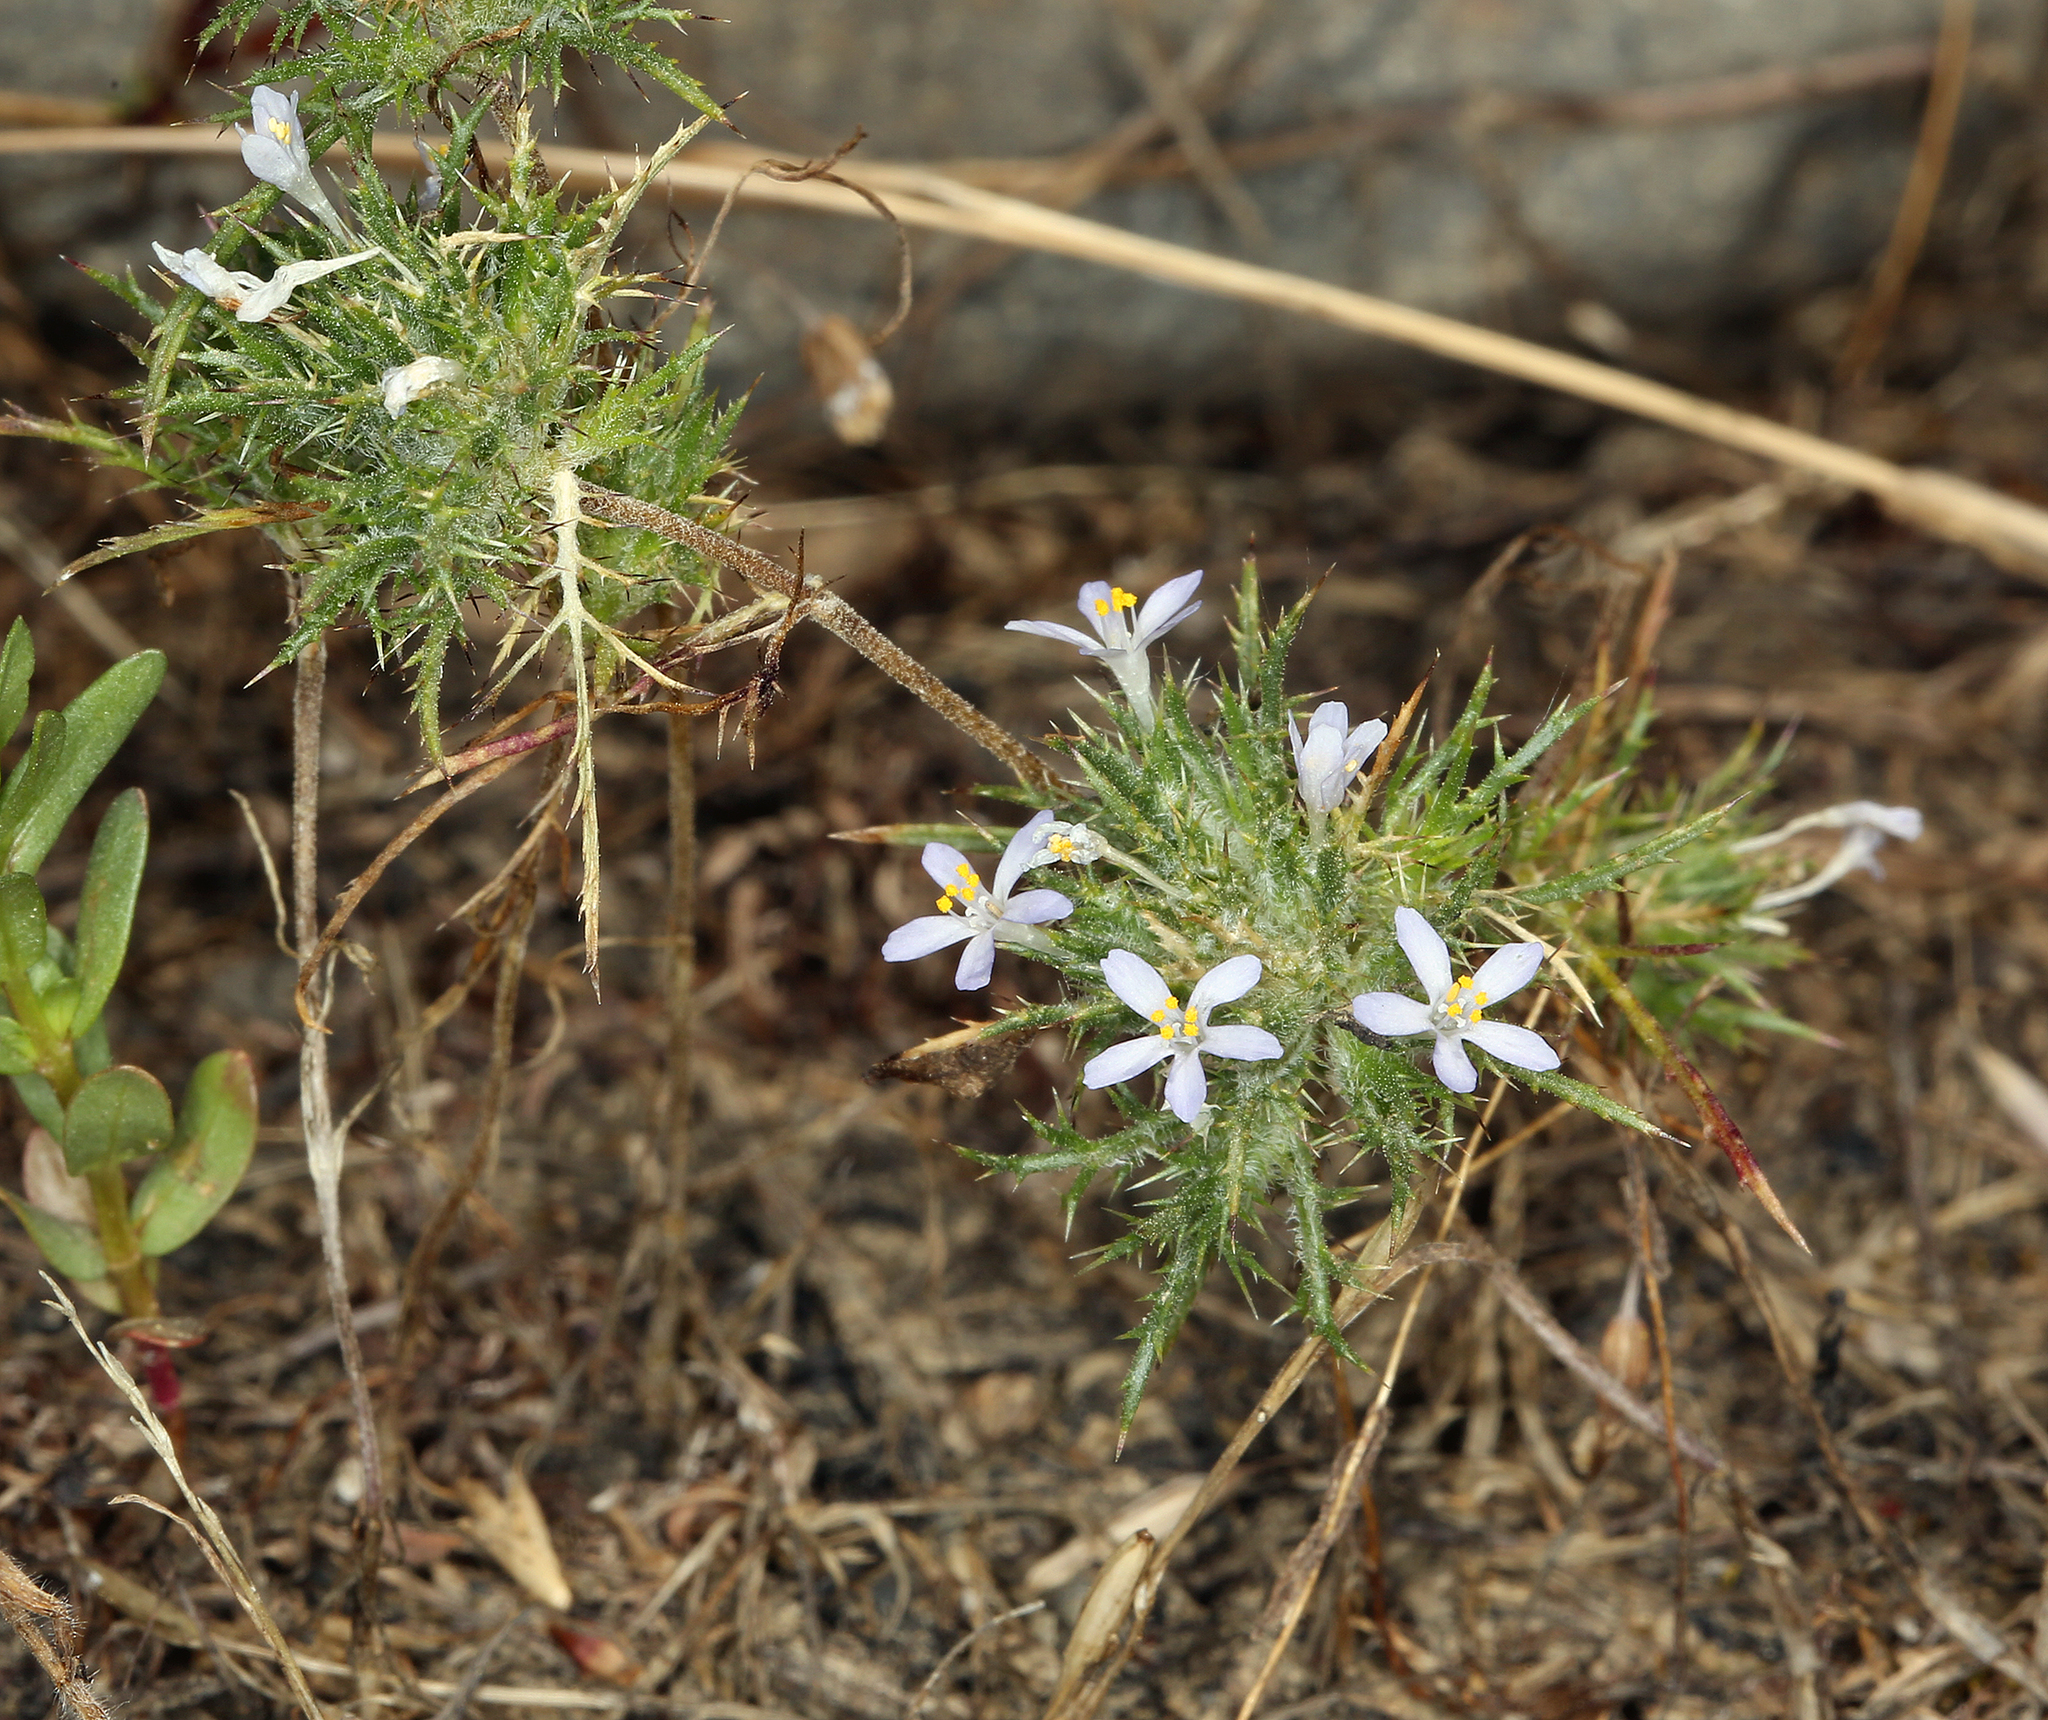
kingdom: Plantae
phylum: Tracheophyta
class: Magnoliopsida
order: Ericales
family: Polemoniaceae
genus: Navarretia
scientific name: Navarretia tagetina
